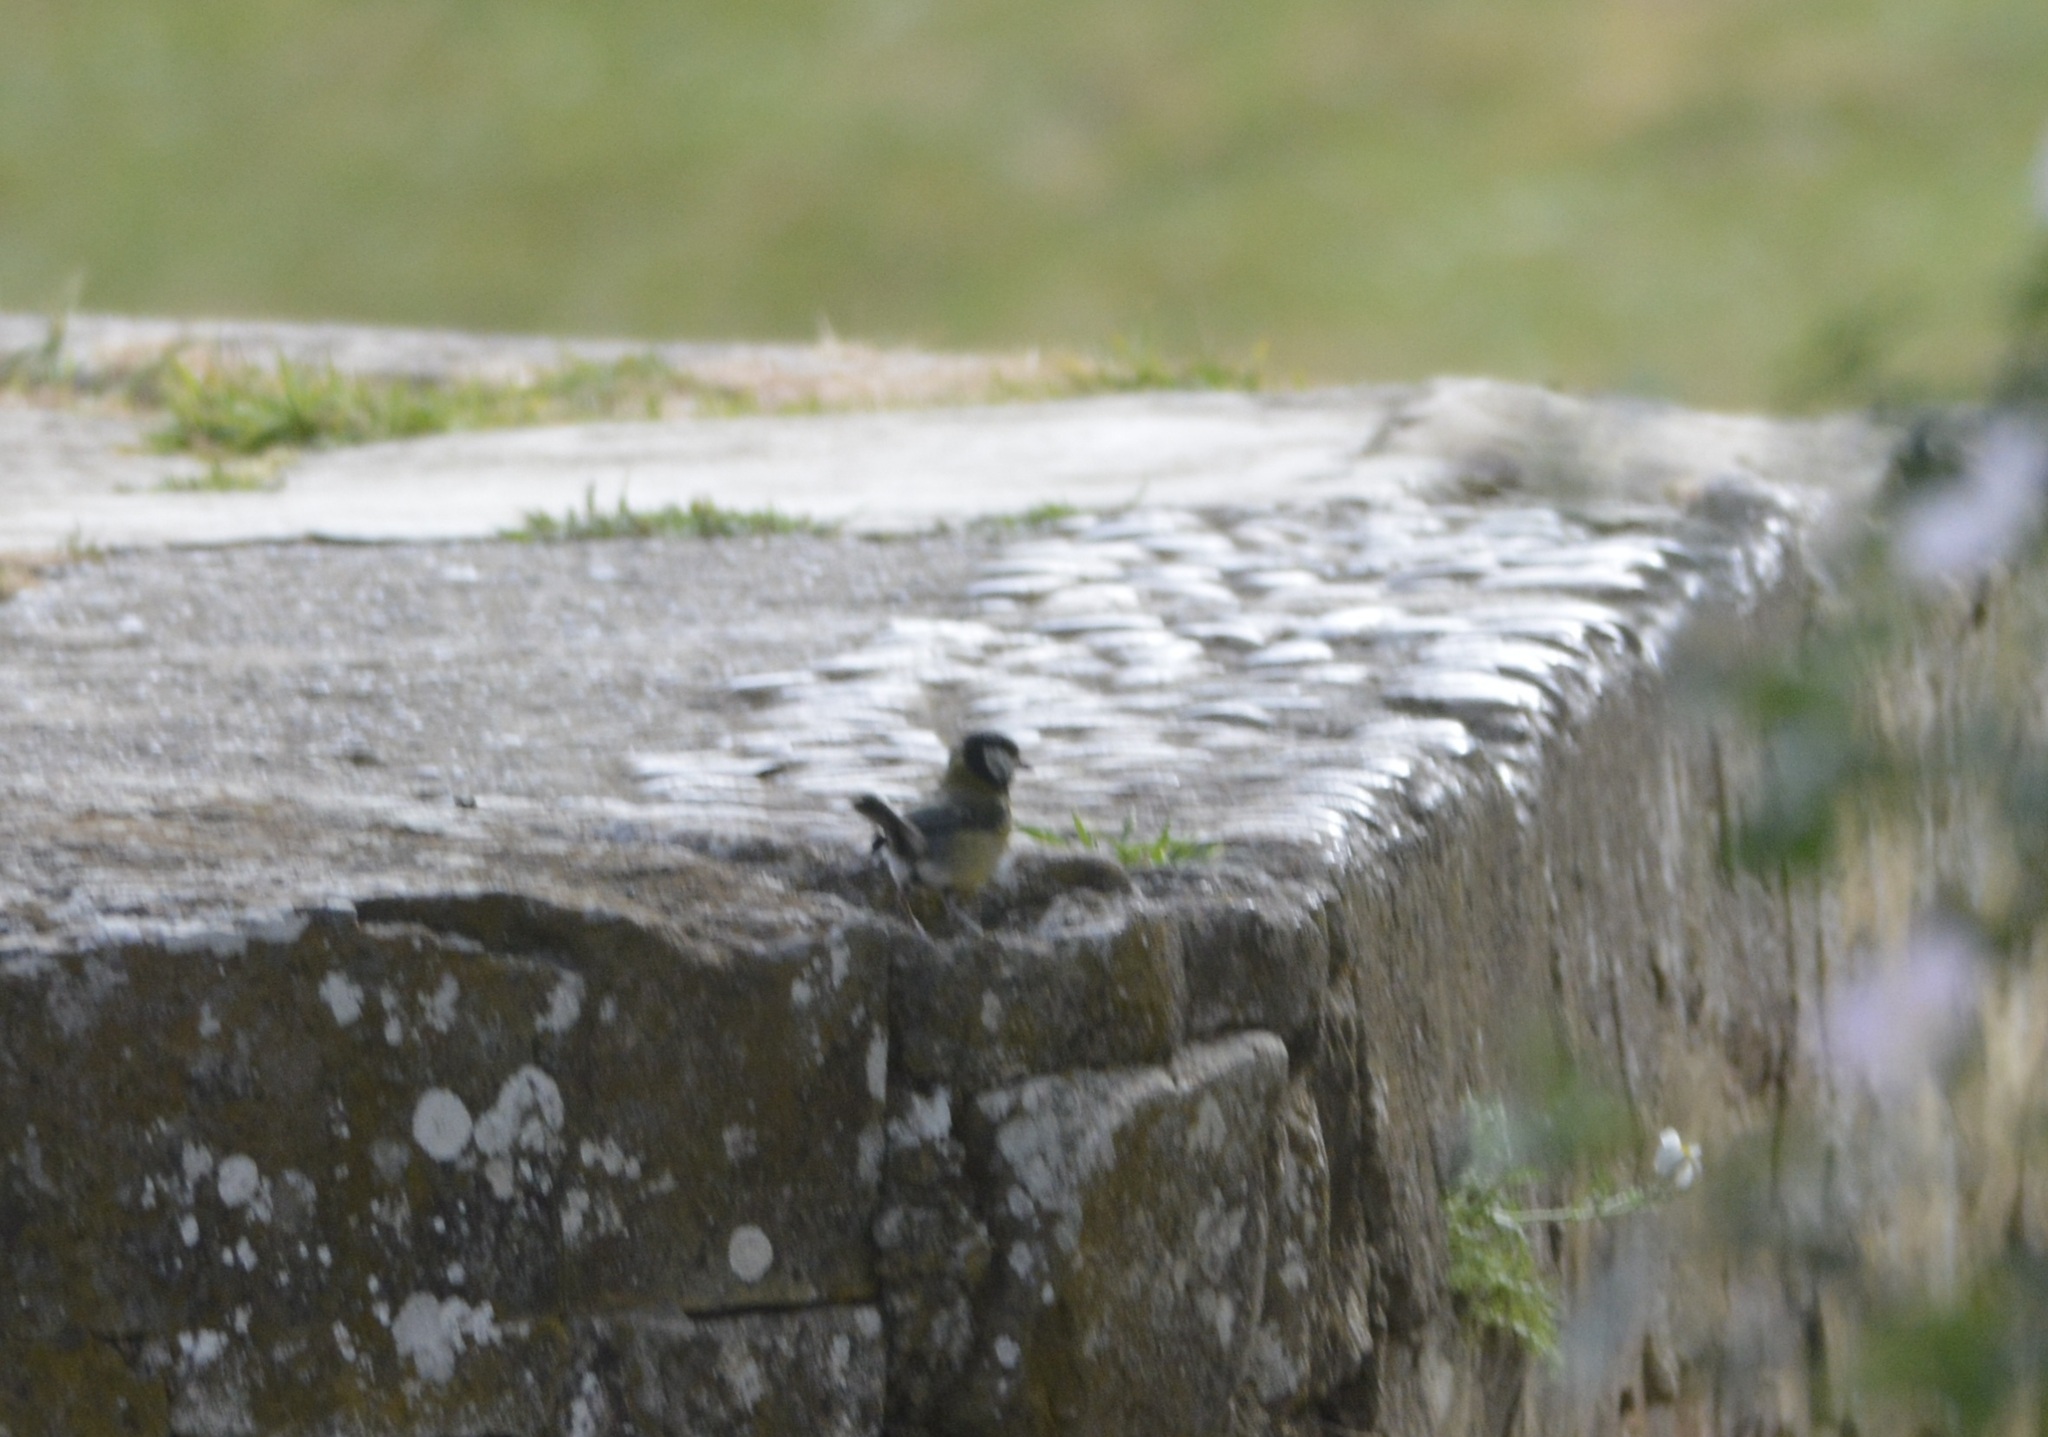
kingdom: Animalia
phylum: Chordata
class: Aves
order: Passeriformes
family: Paridae
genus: Parus
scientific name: Parus major
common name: Great tit
